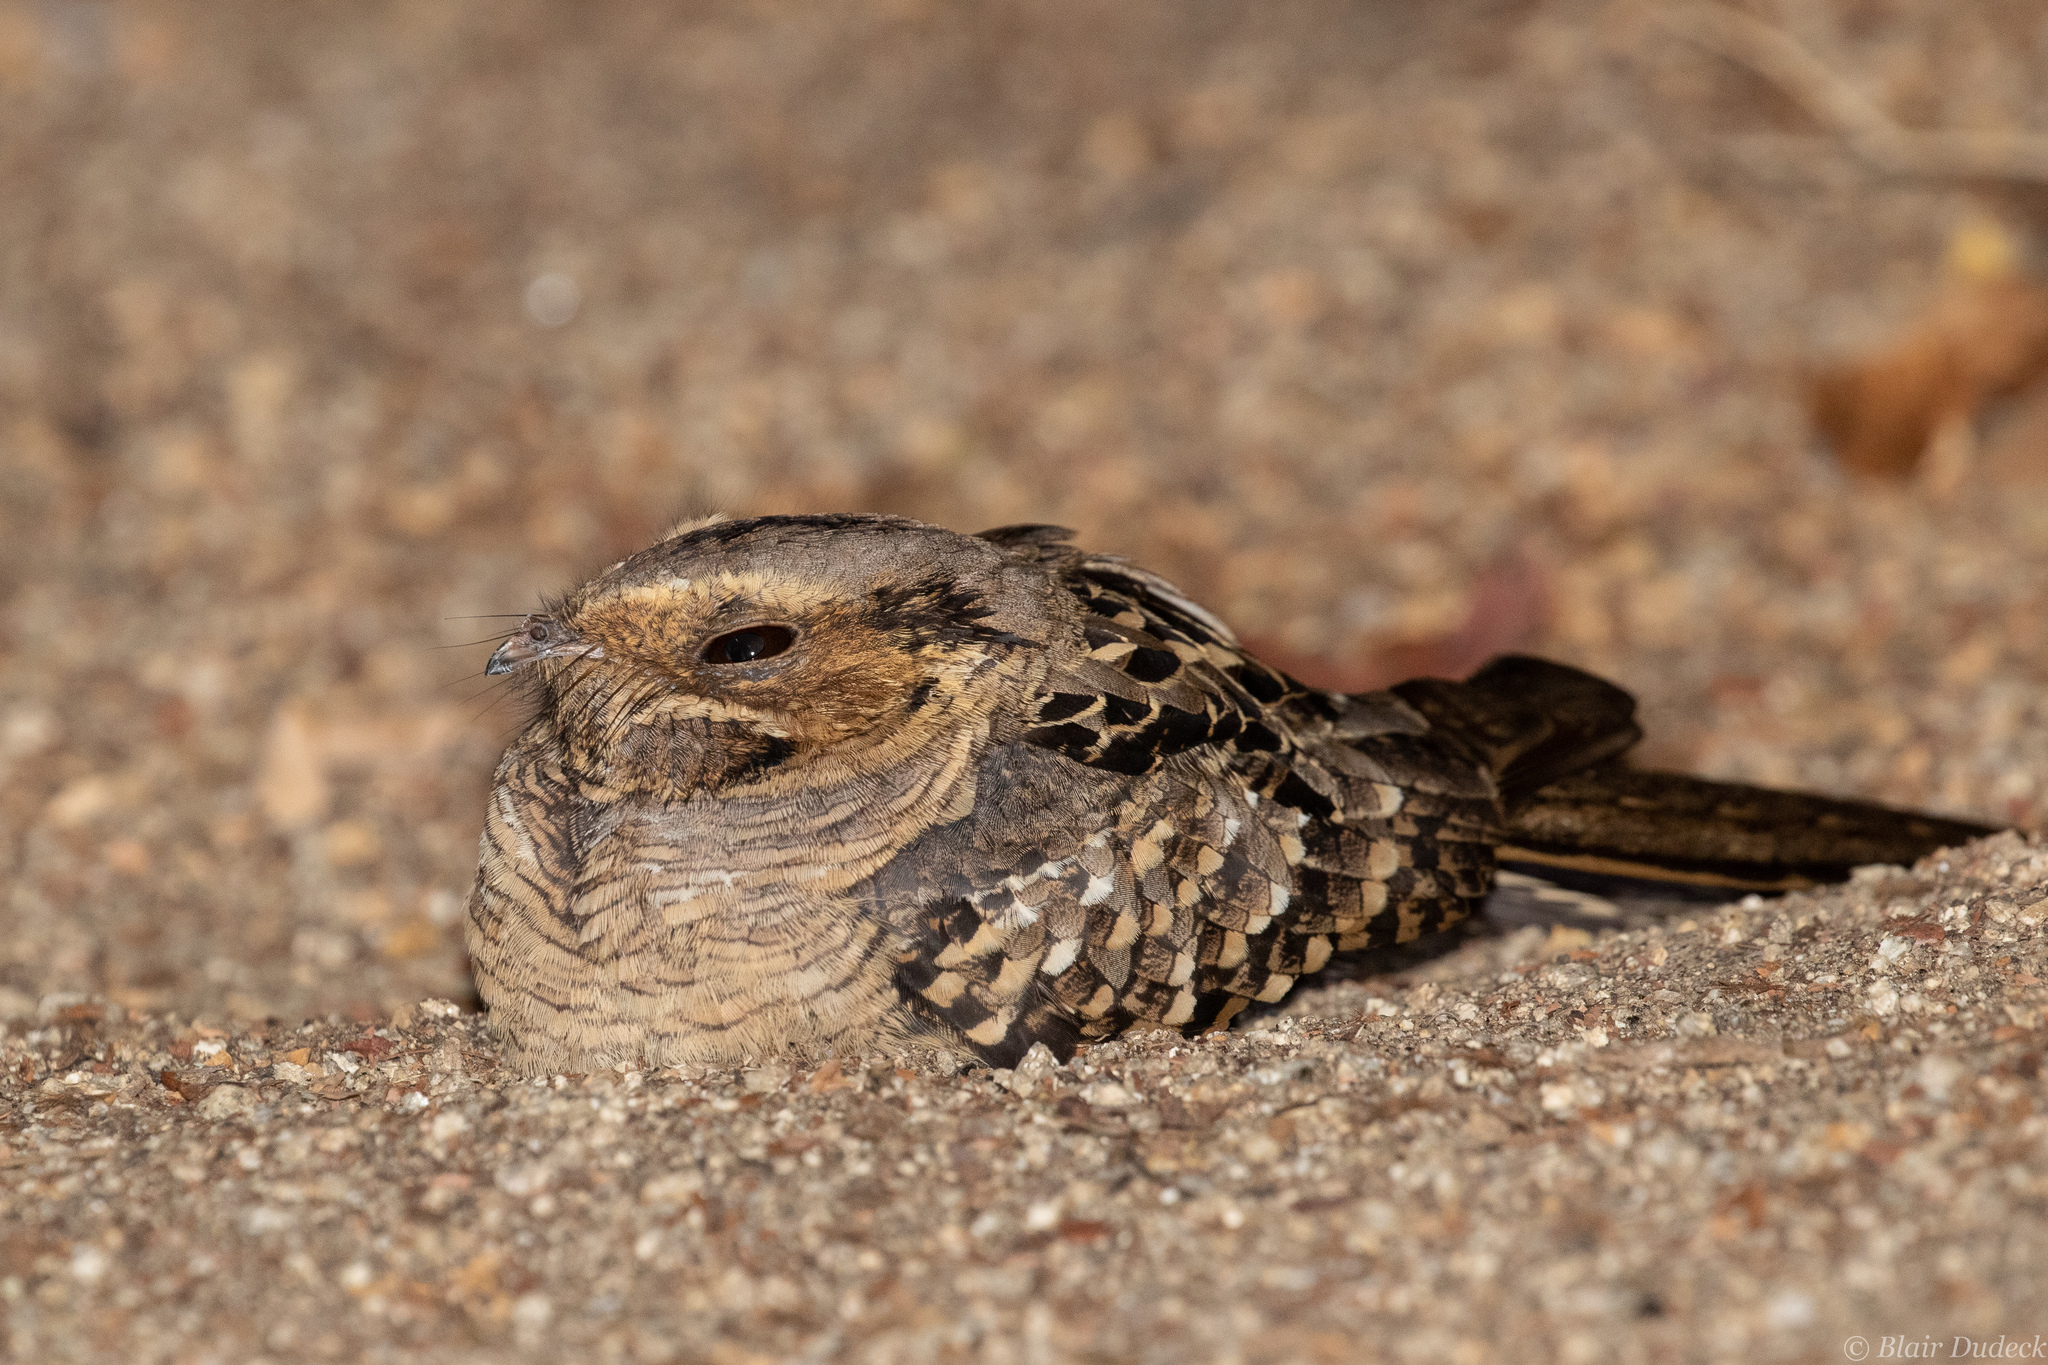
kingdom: Animalia
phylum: Chordata
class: Aves
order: Caprimulgiformes
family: Caprimulgidae
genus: Nyctidromus
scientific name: Nyctidromus albicollis
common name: Pauraque
